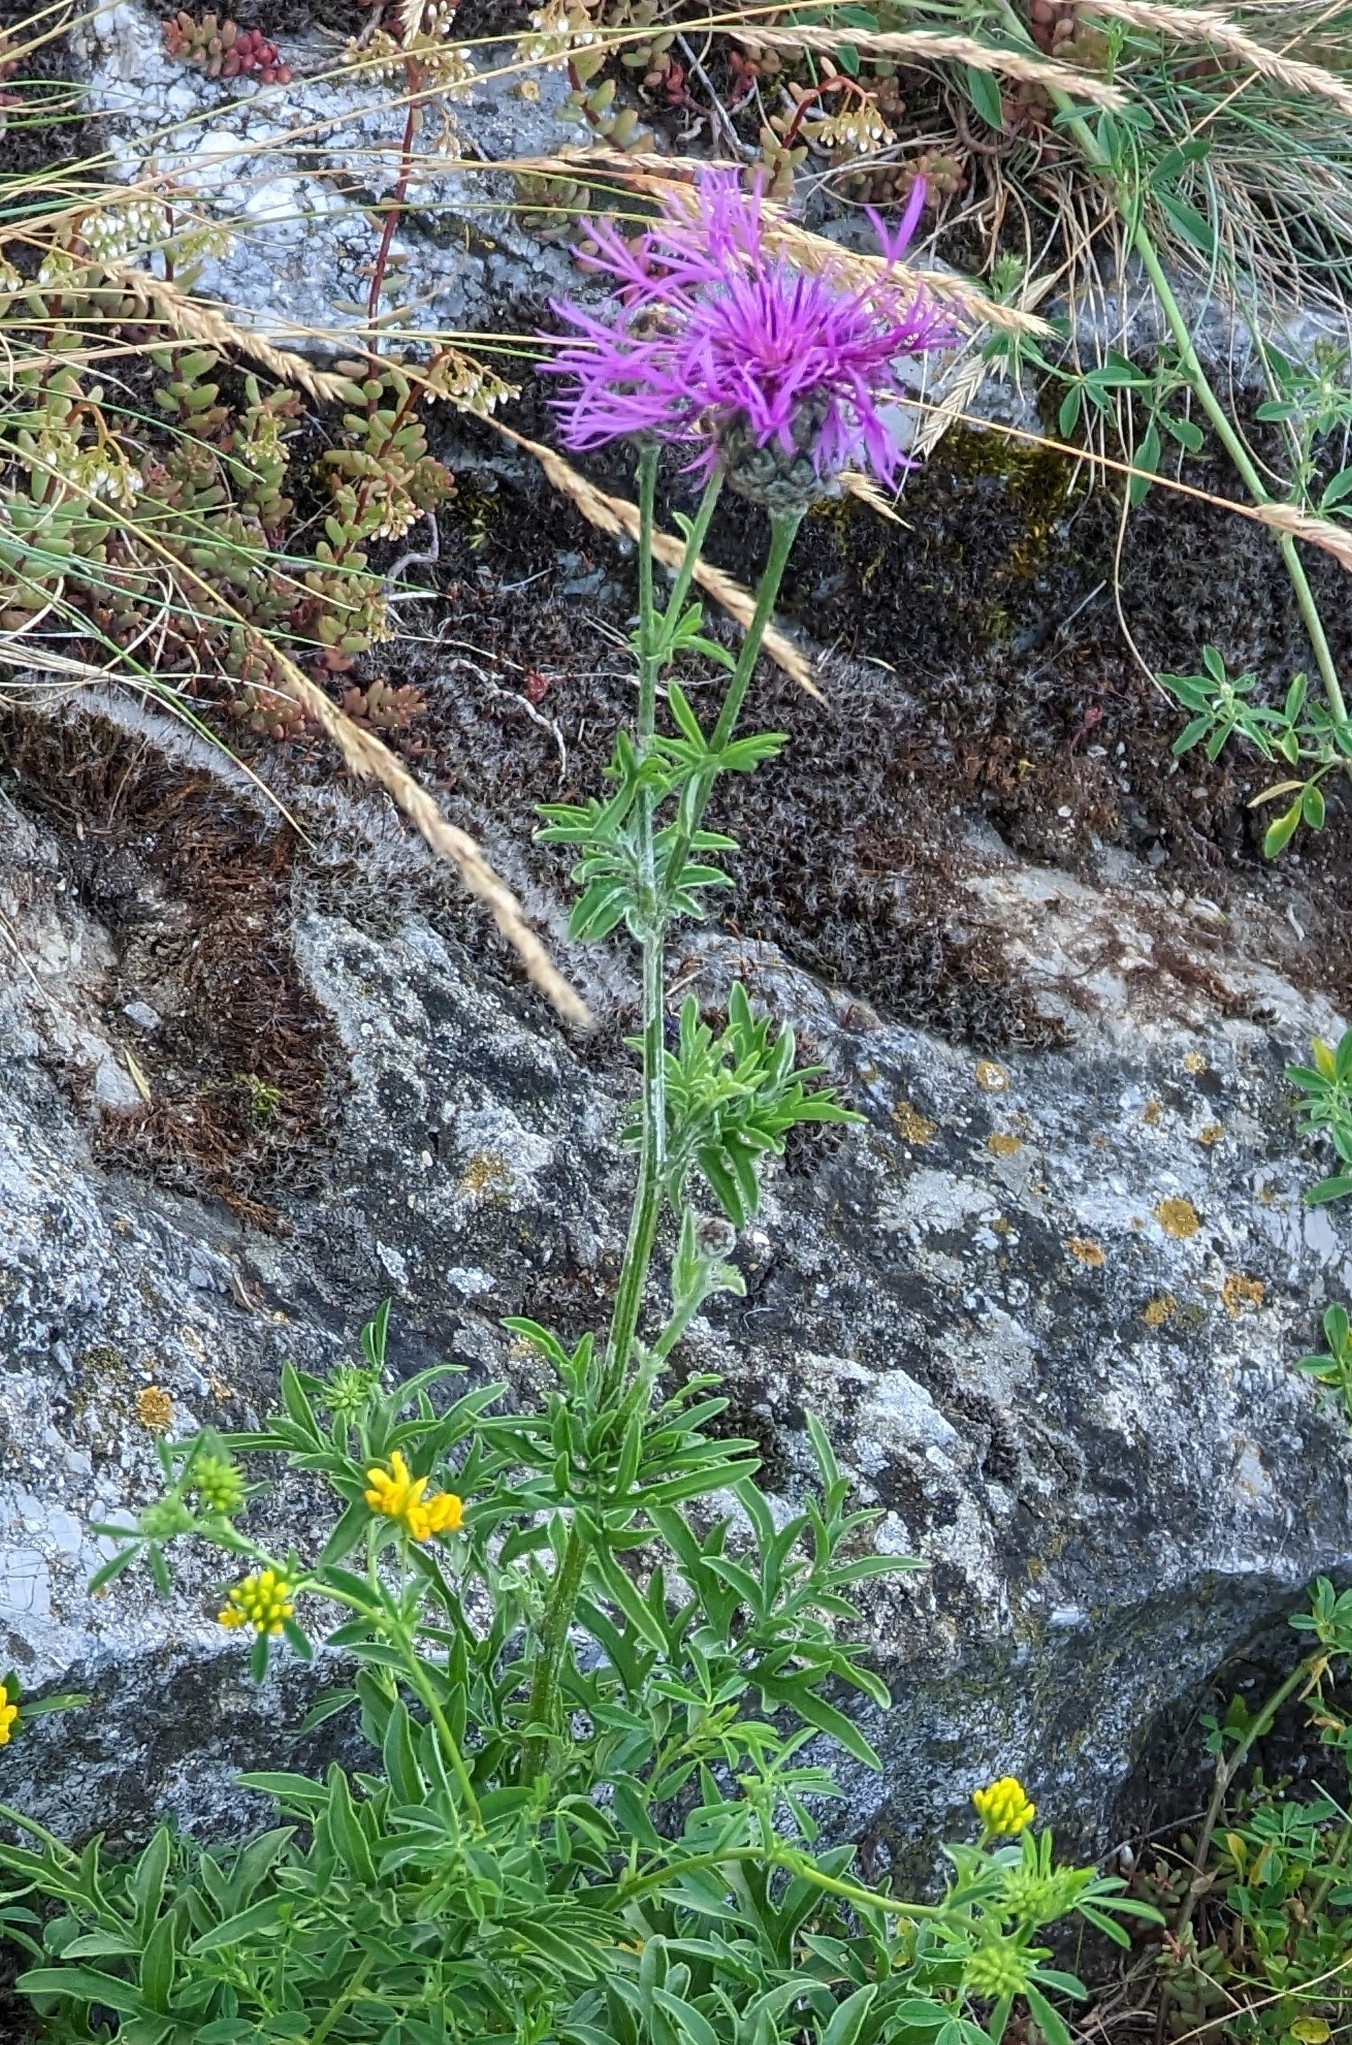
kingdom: Plantae
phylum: Tracheophyta
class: Magnoliopsida
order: Asterales
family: Asteraceae
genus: Centaurea
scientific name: Centaurea scabiosa
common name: Greater knapweed
